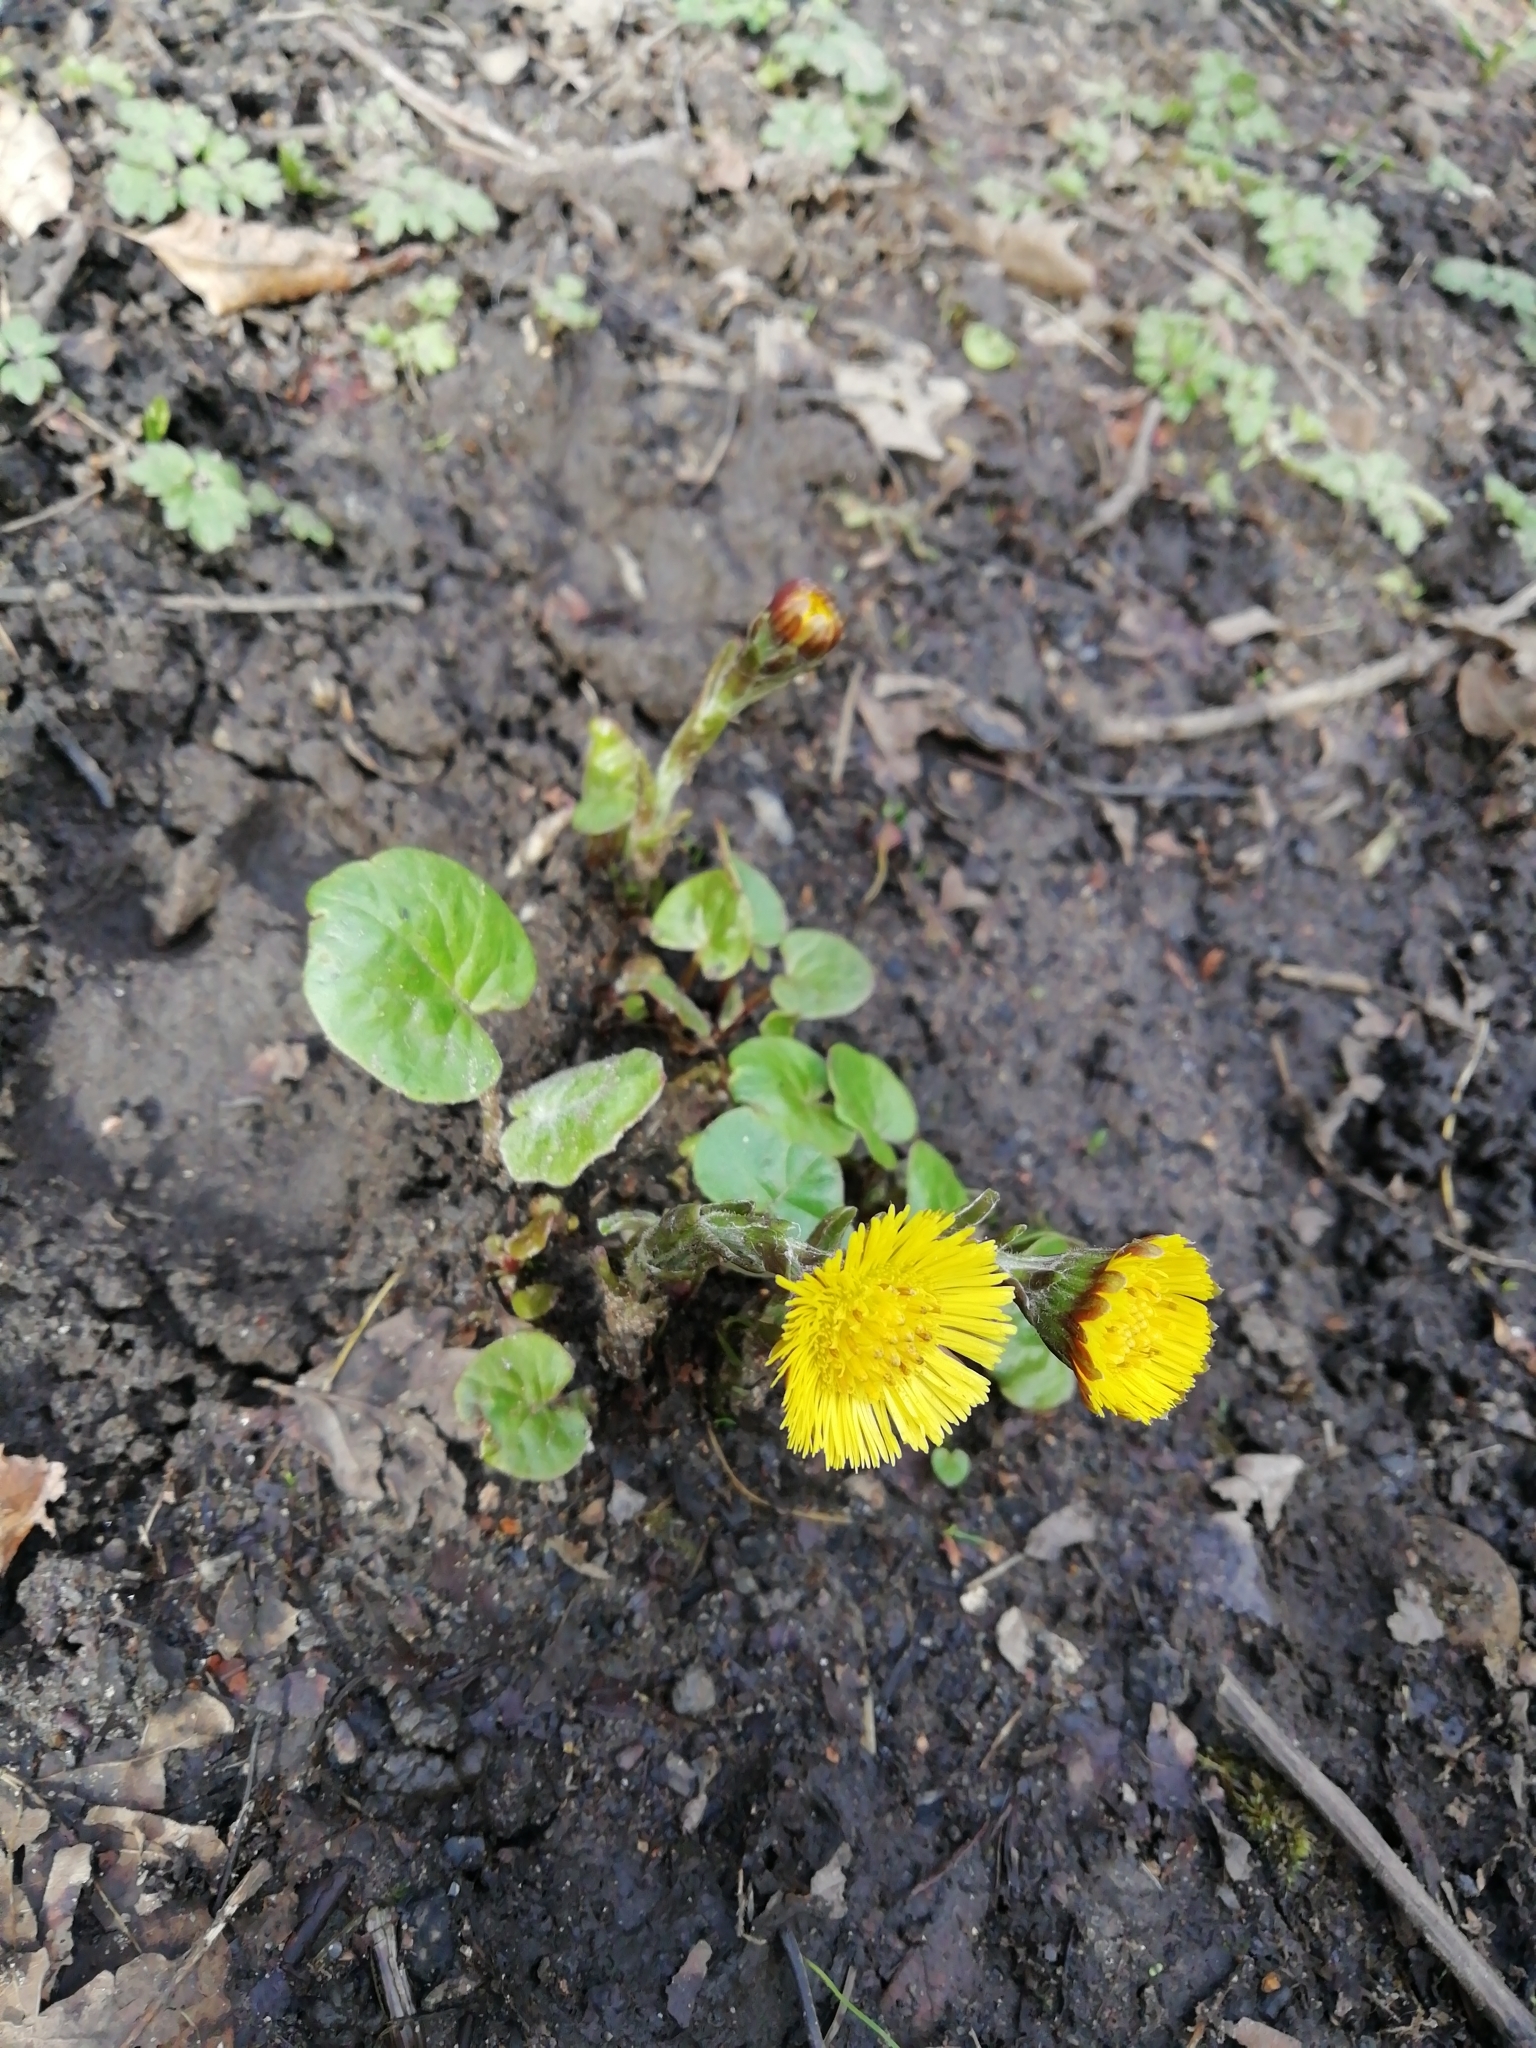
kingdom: Plantae
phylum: Tracheophyta
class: Magnoliopsida
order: Asterales
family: Asteraceae
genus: Tussilago
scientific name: Tussilago farfara
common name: Coltsfoot
